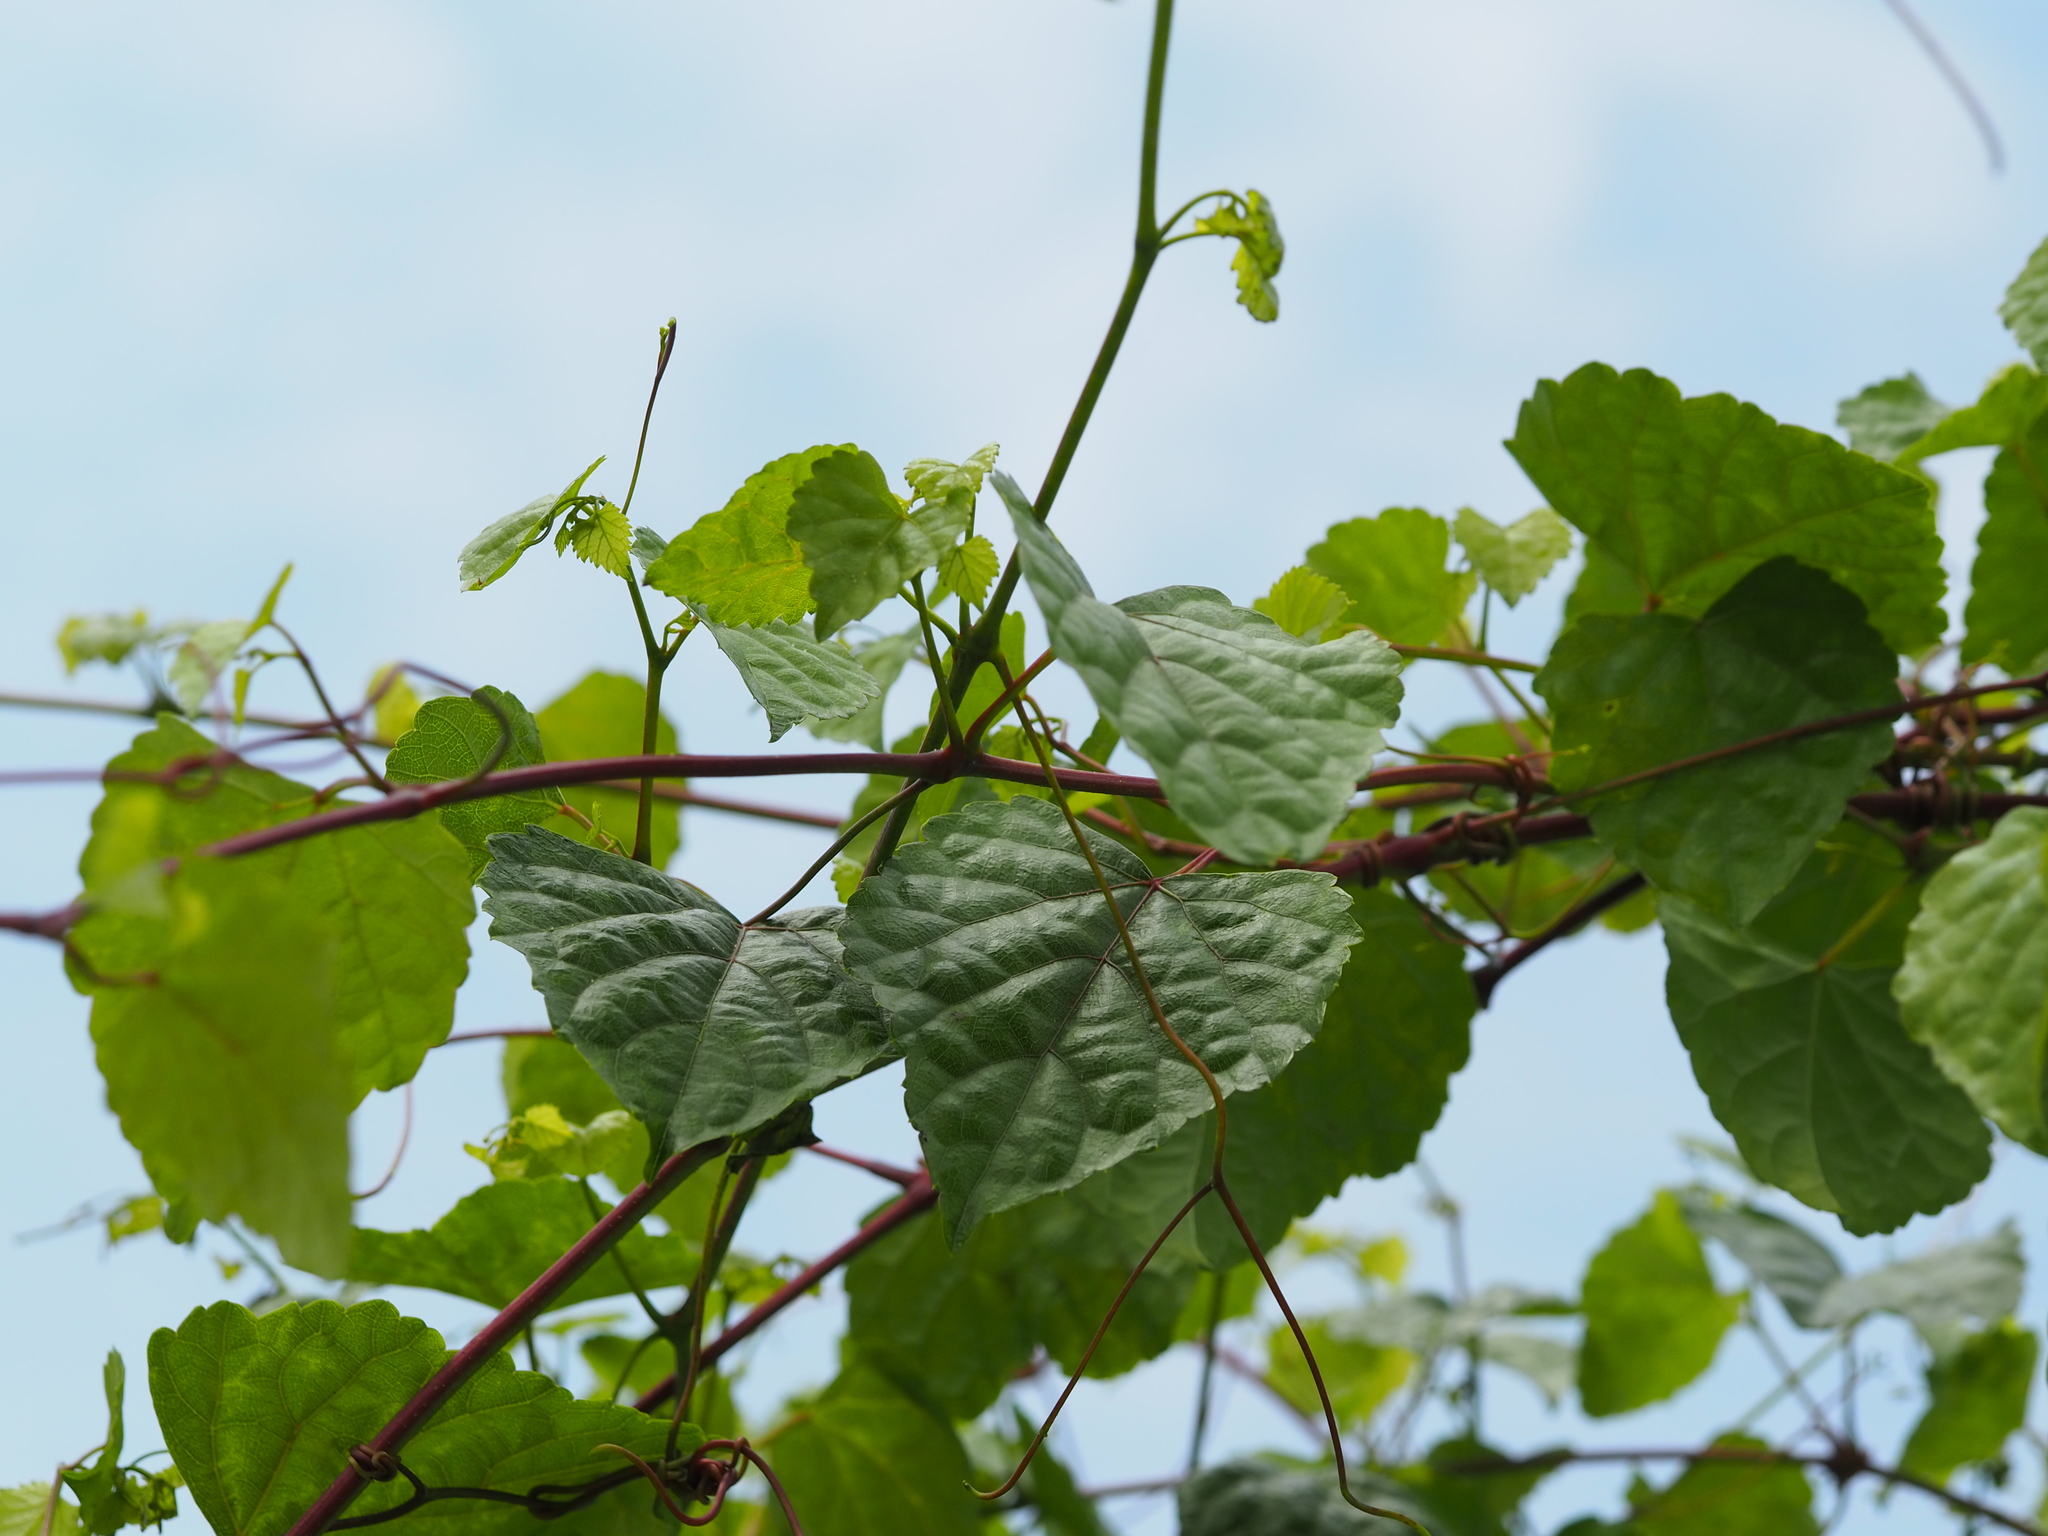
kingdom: Plantae
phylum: Tracheophyta
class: Magnoliopsida
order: Vitales
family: Vitaceae
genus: Ampelopsis
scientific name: Ampelopsis glandulosa
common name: Amur peppervine
